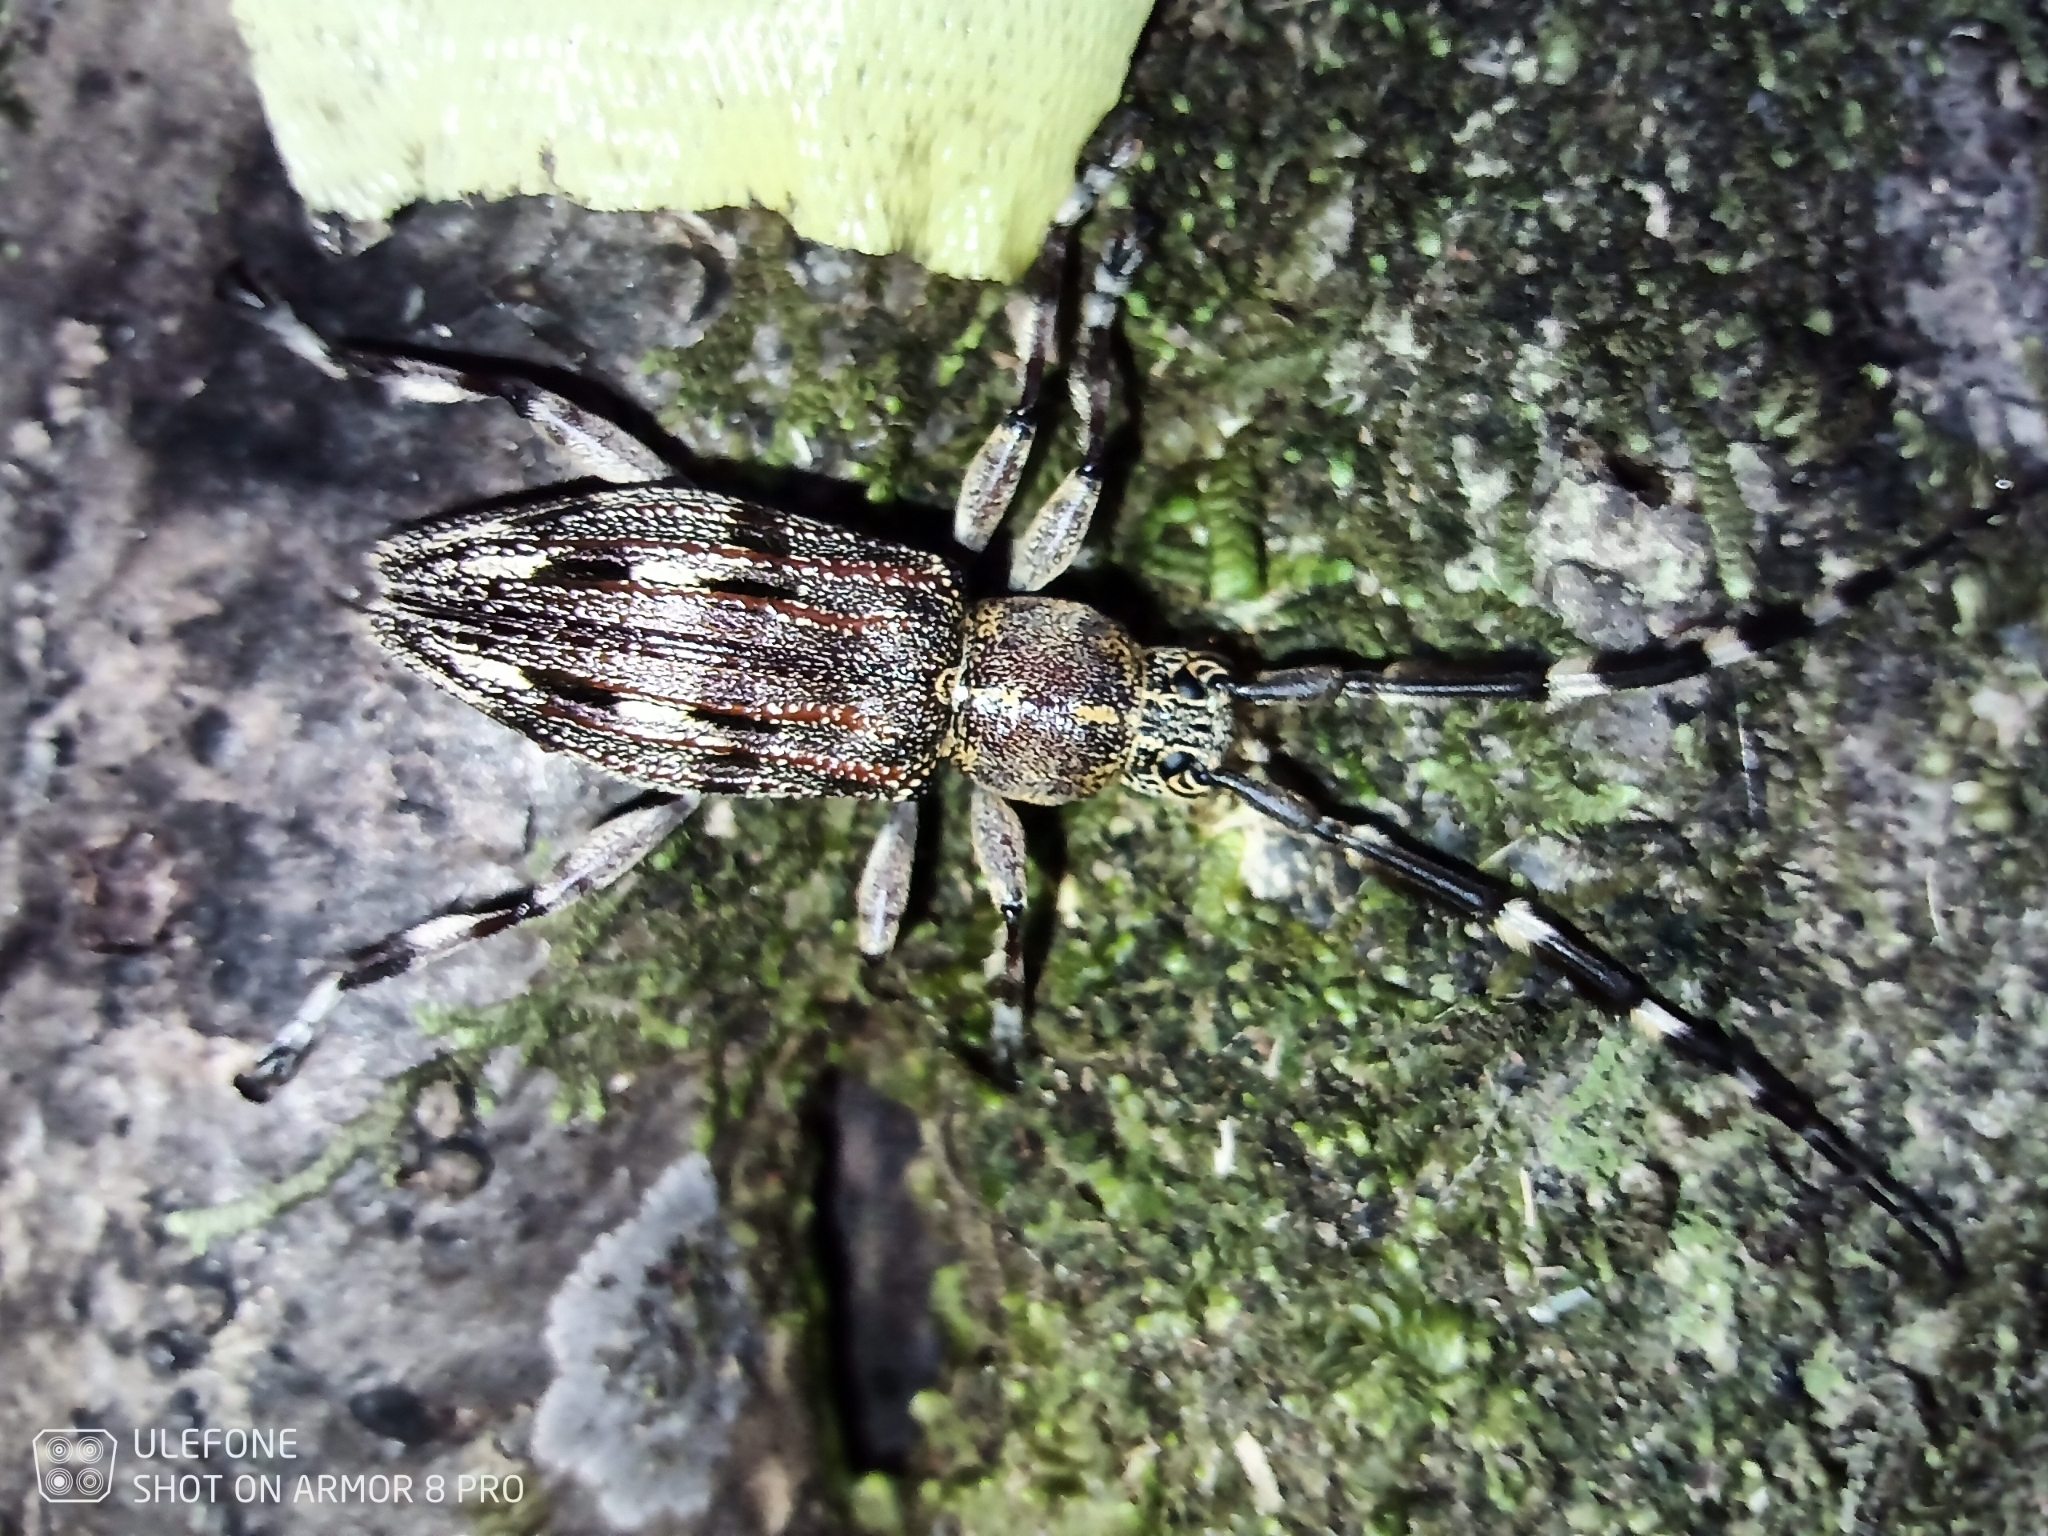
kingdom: Animalia
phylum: Arthropoda
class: Insecta
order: Coleoptera
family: Cerambycidae
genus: Hexatricha
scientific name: Hexatricha pulverulenta
